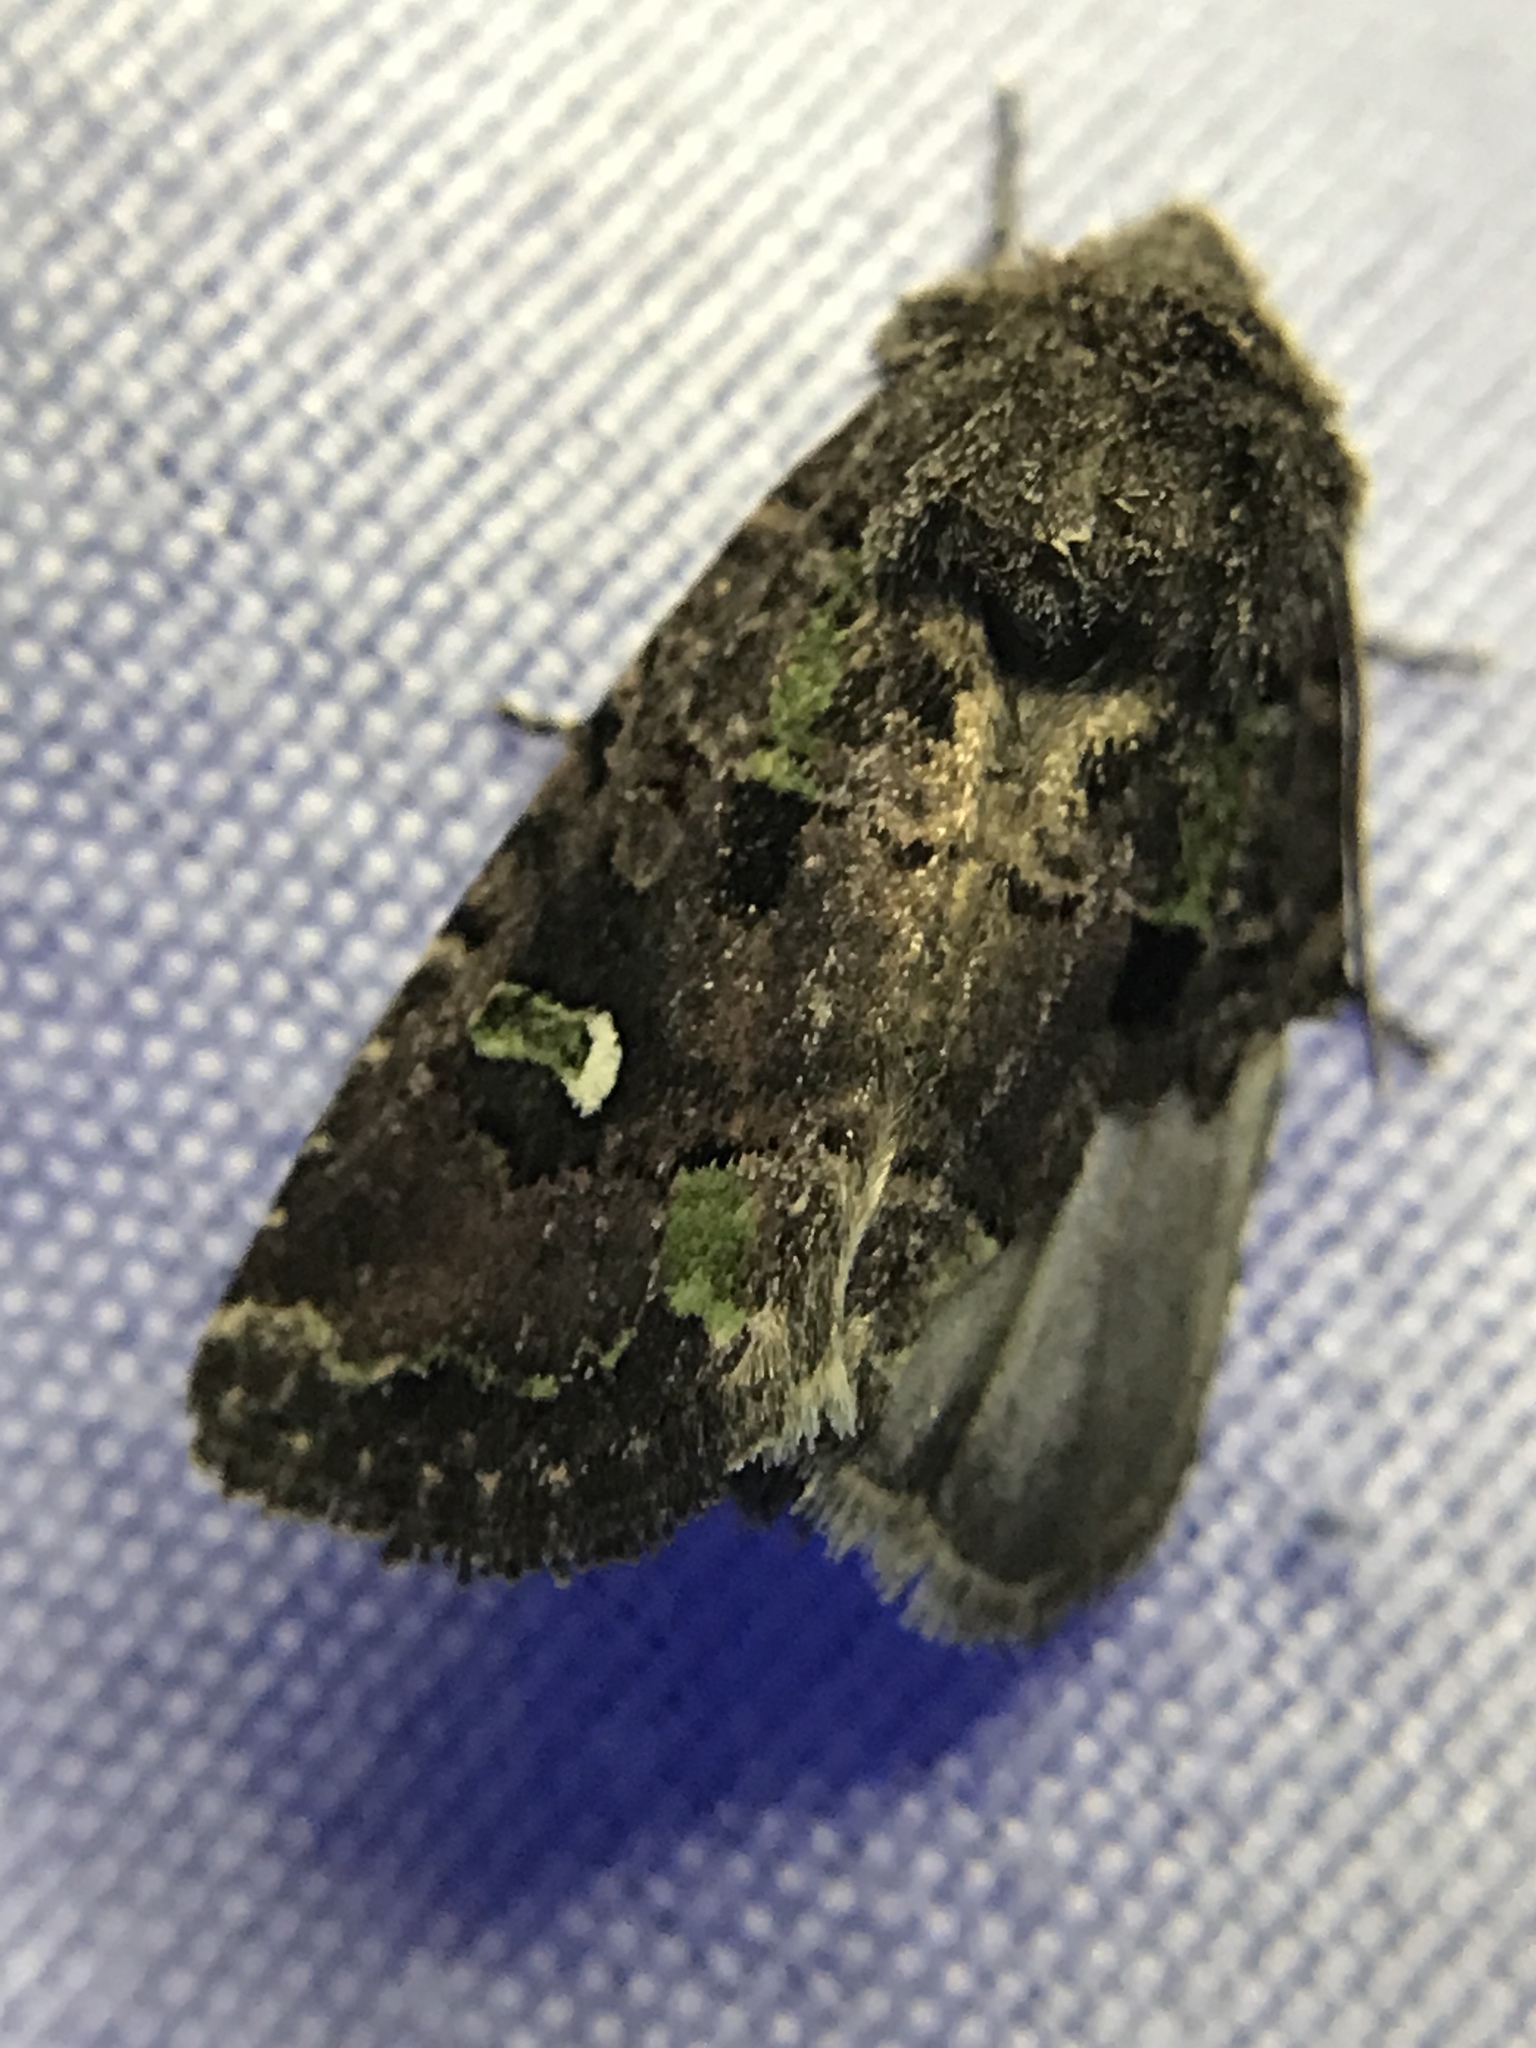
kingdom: Animalia
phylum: Arthropoda
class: Insecta
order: Lepidoptera
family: Noctuidae
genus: Lacinipolia
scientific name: Lacinipolia renigera
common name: Kidney-spotted minor
